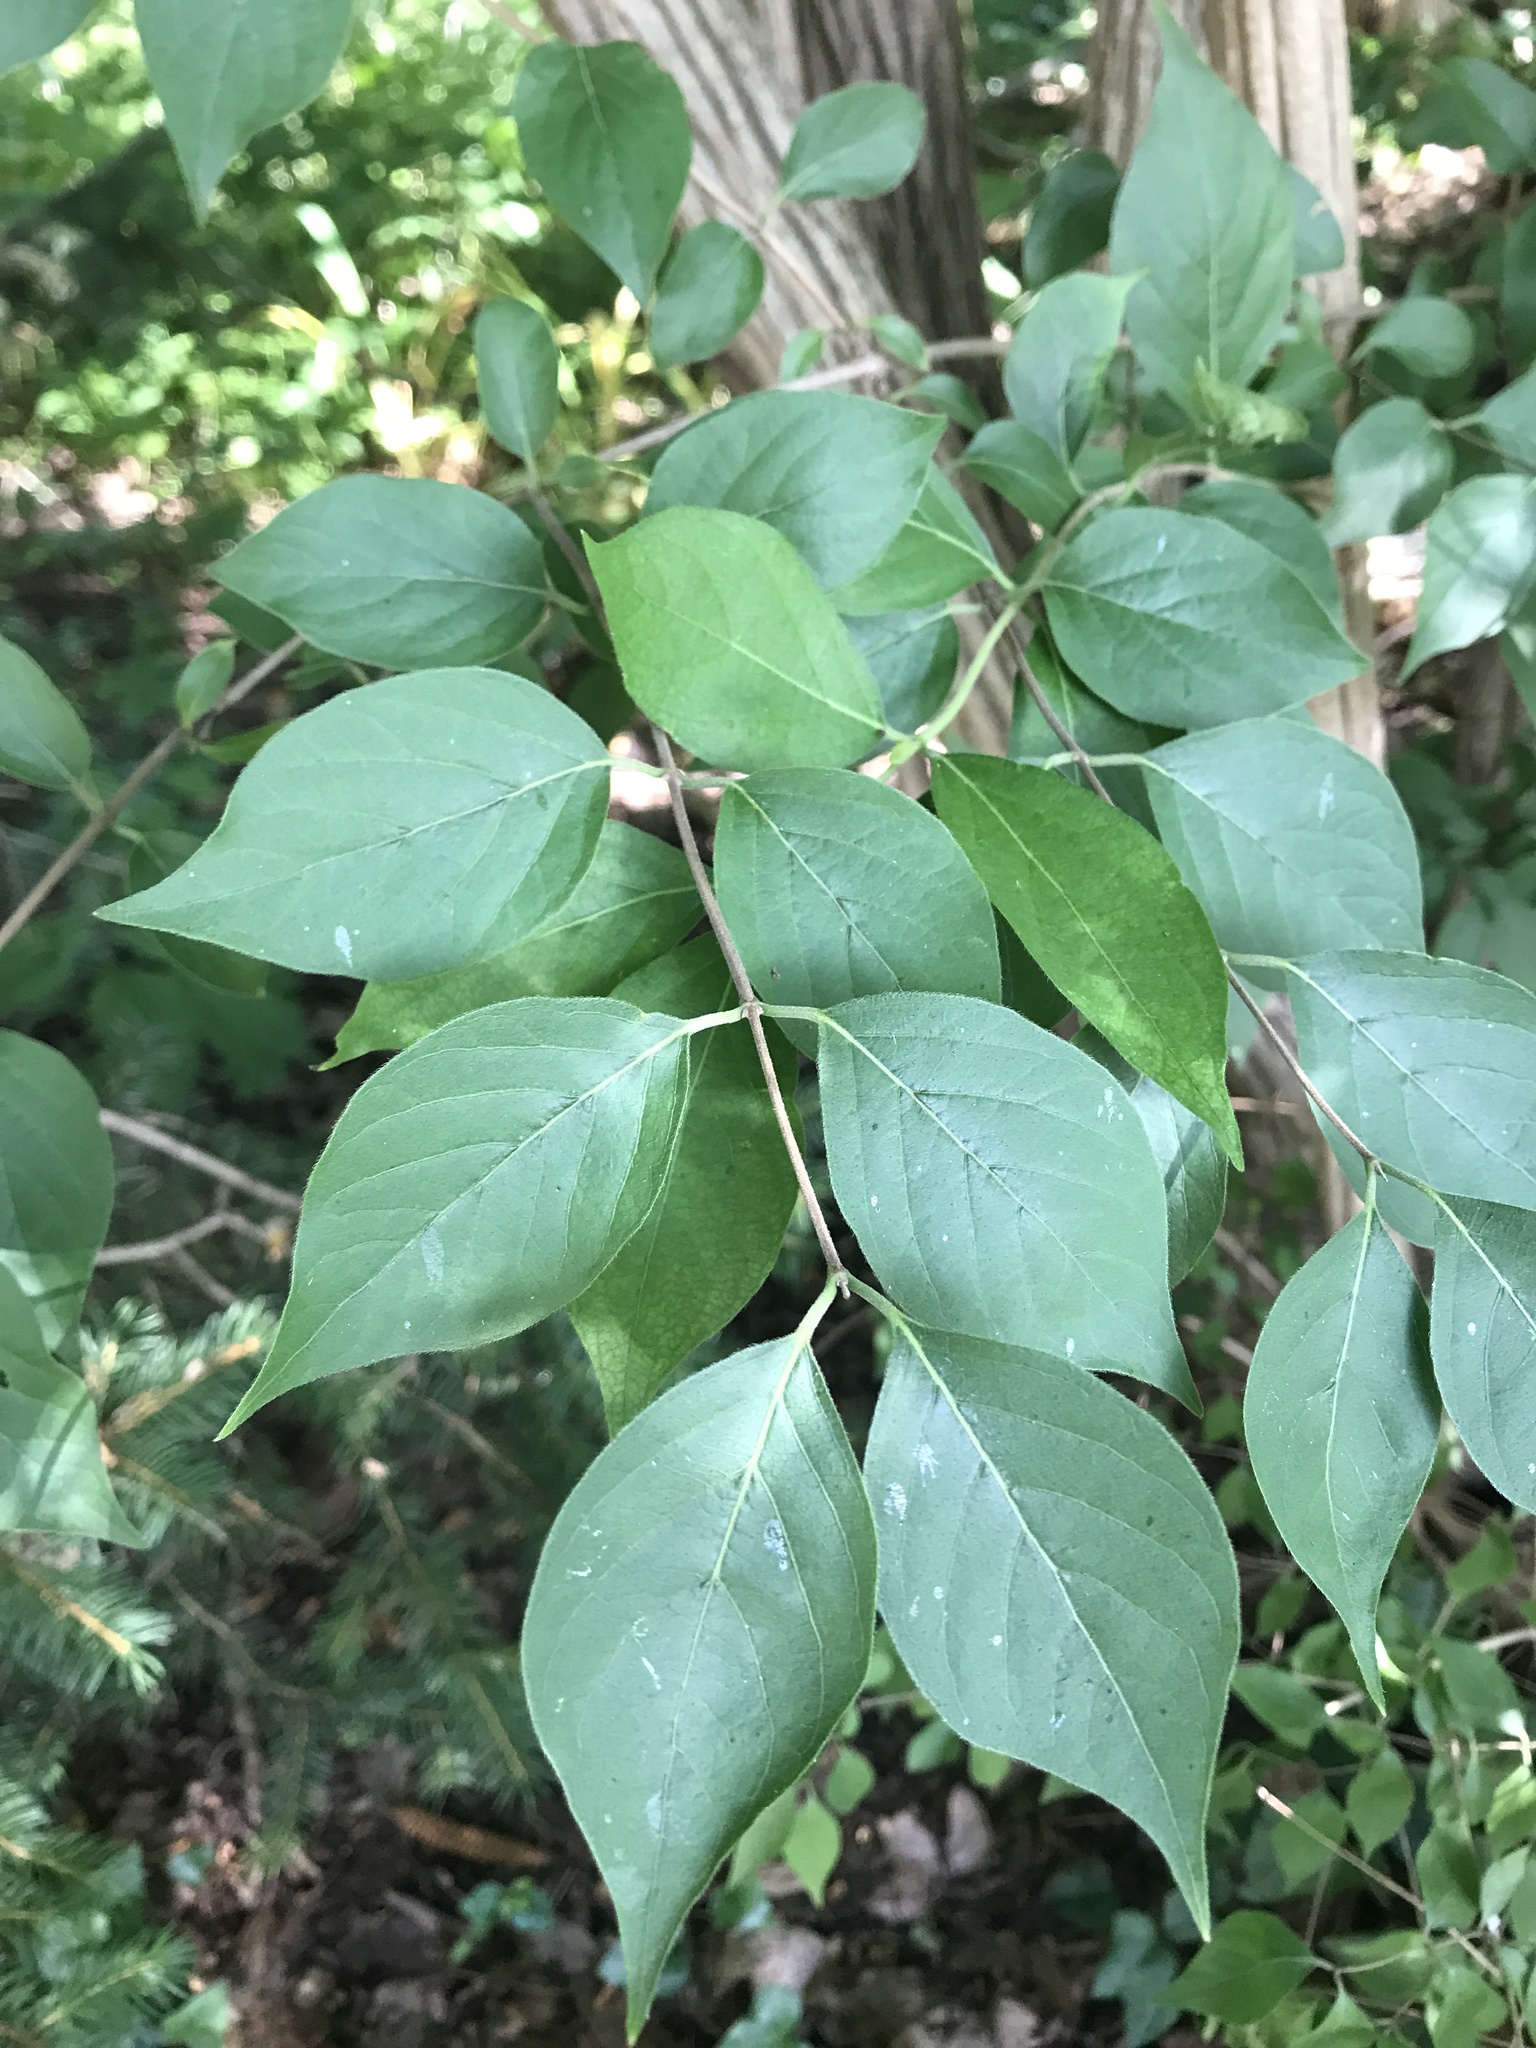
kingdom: Plantae
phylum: Tracheophyta
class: Magnoliopsida
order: Dipsacales
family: Caprifoliaceae
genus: Lonicera
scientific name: Lonicera maackii
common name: Amur honeysuckle
